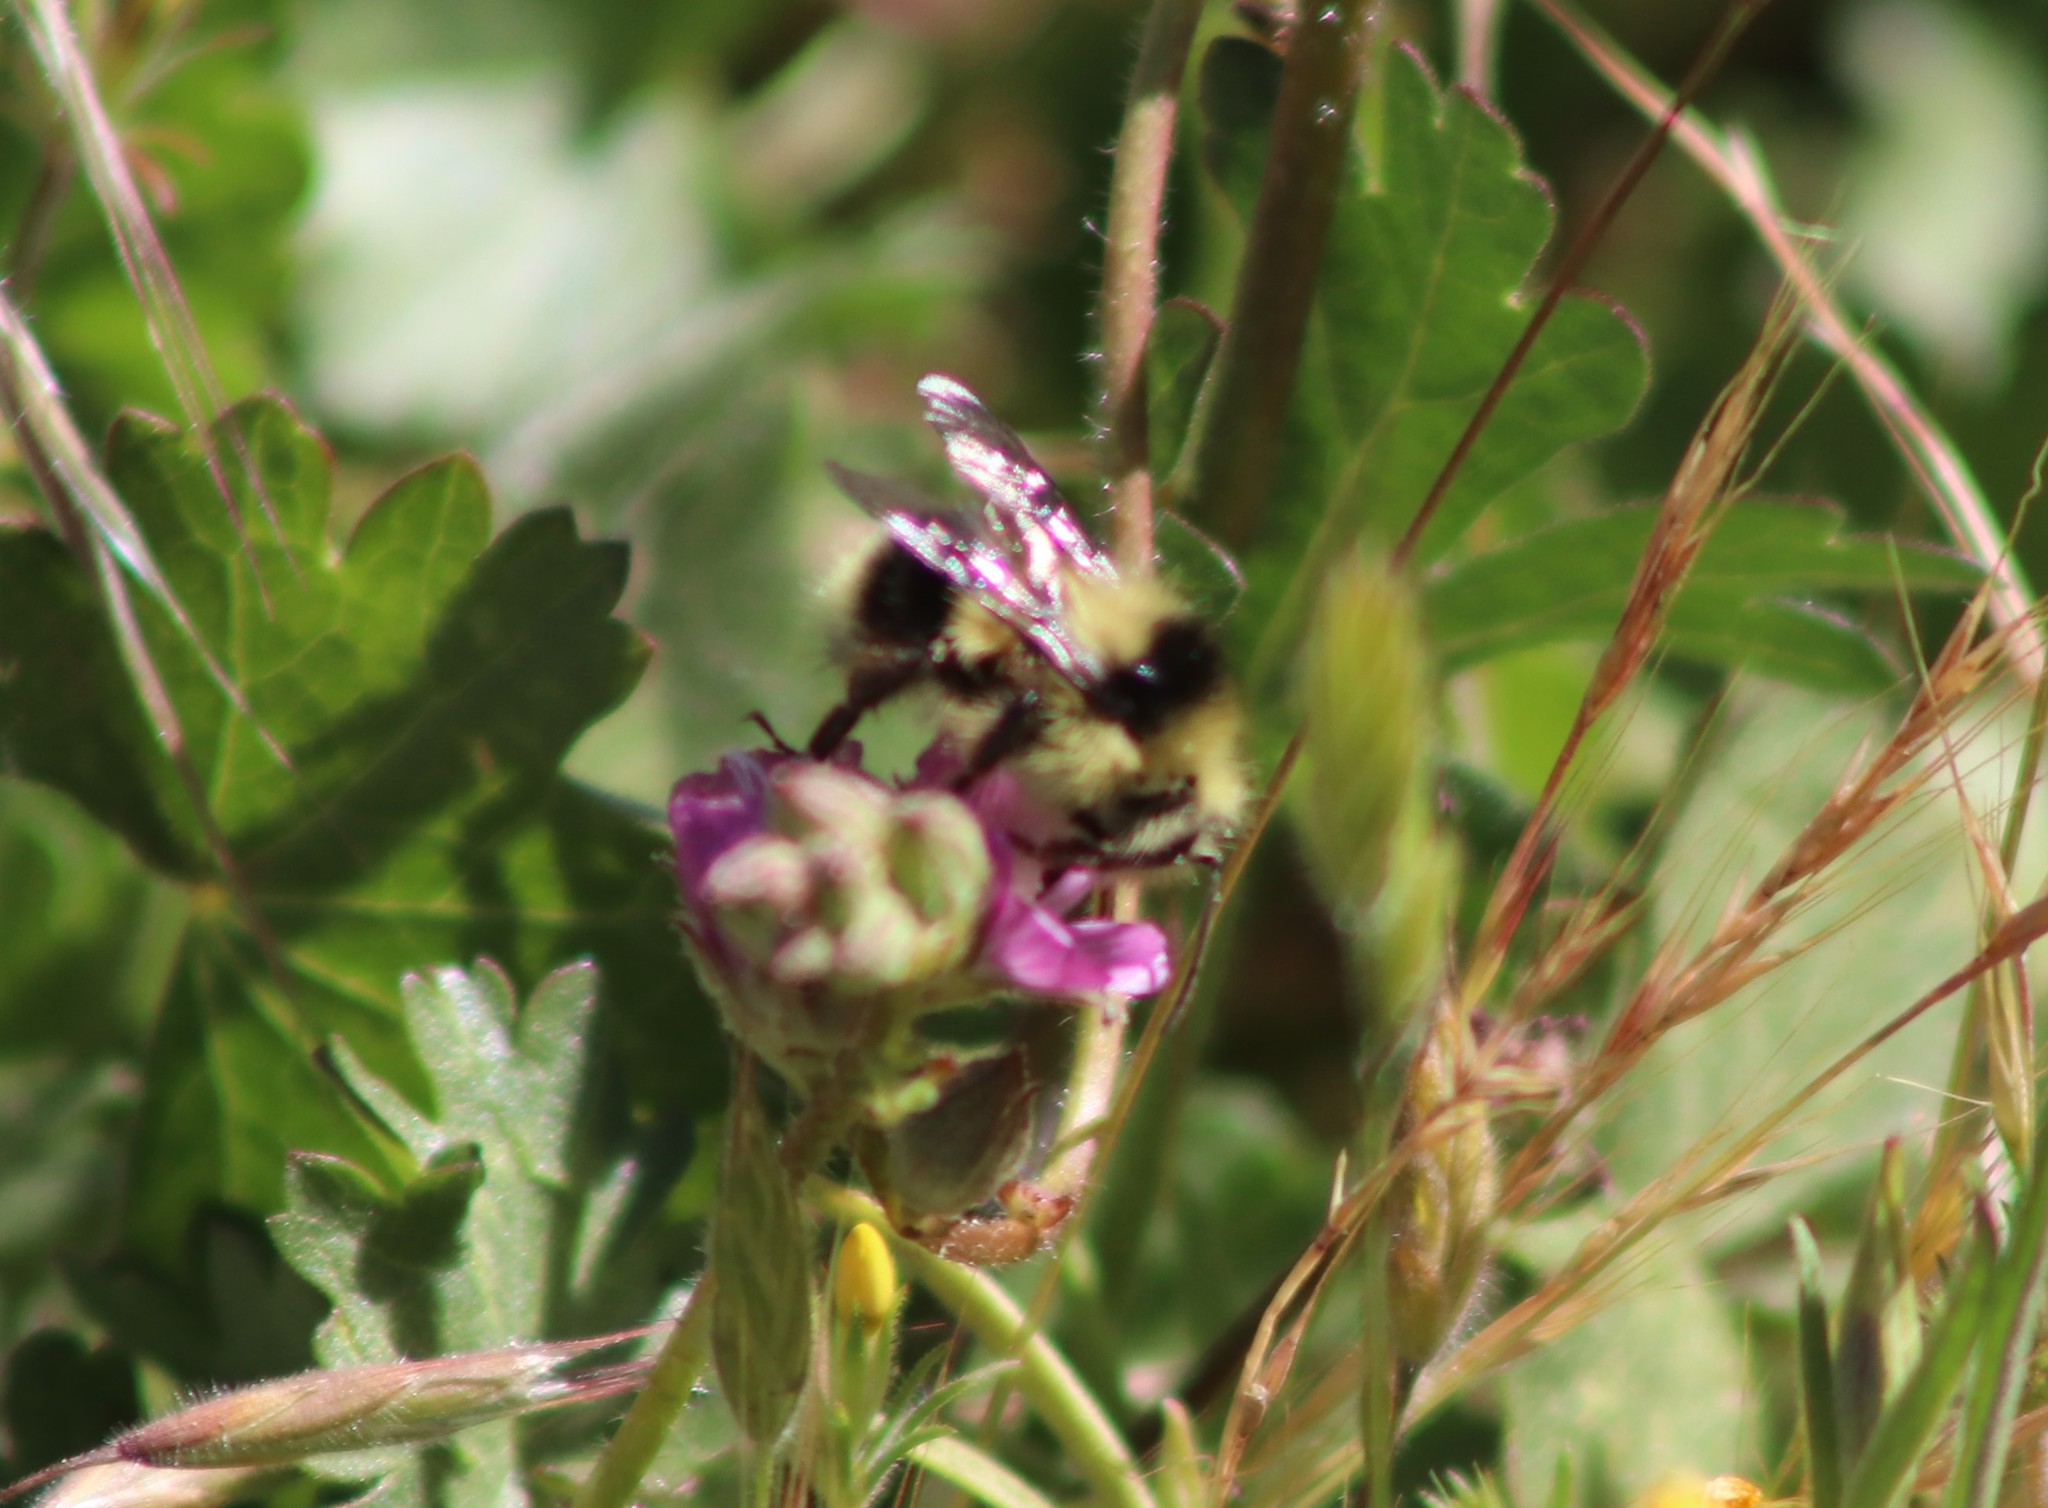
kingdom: Animalia
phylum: Arthropoda
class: Insecta
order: Hymenoptera
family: Apidae
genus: Bombus
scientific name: Bombus melanopygus
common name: Black tail bumble bee
